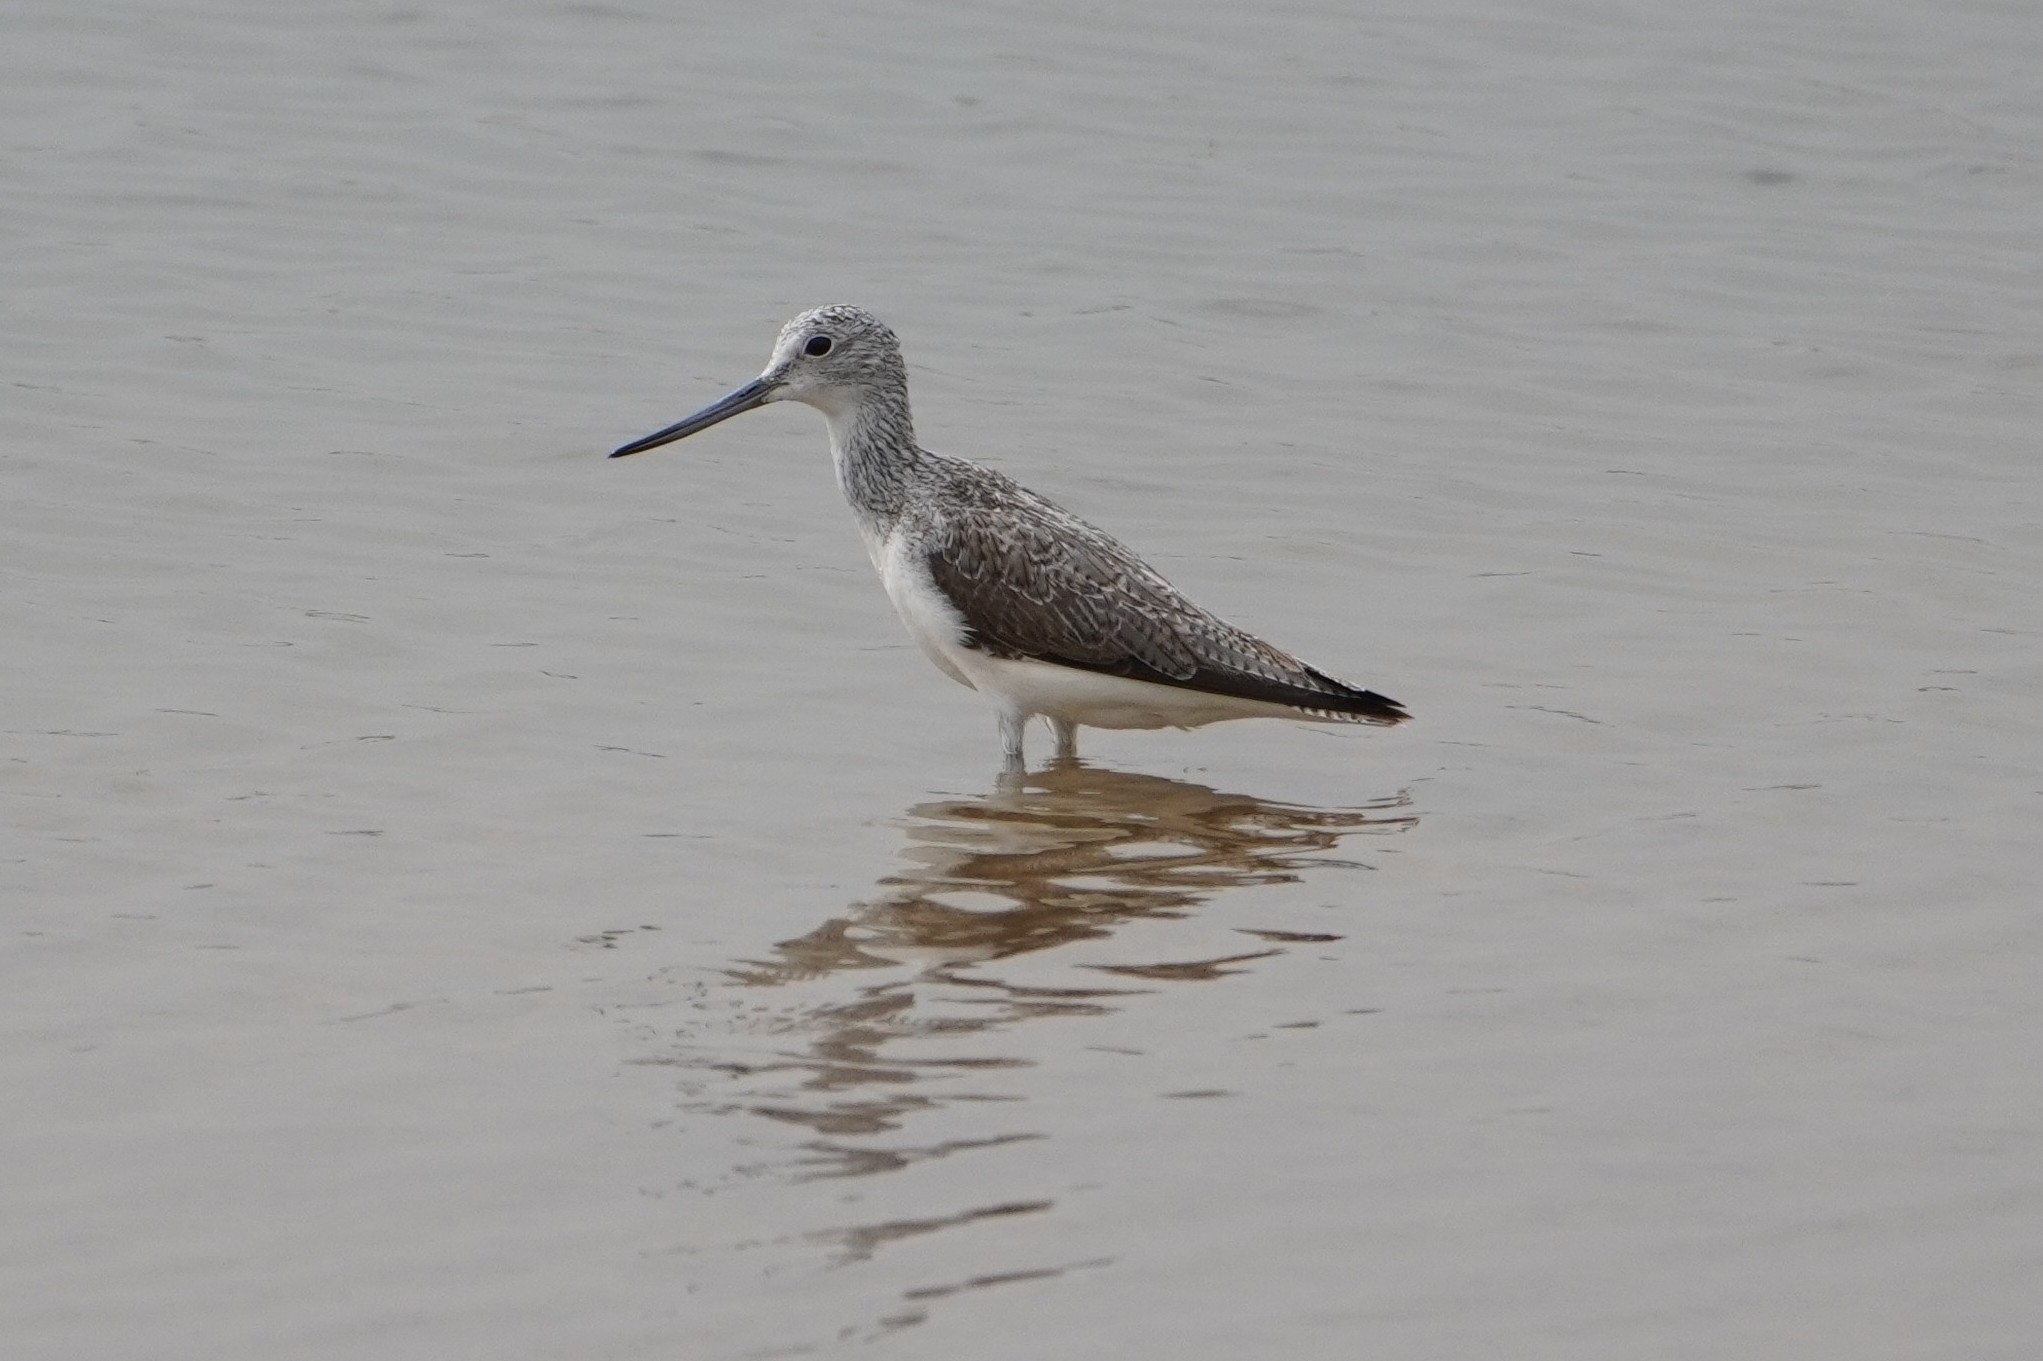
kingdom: Animalia
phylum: Chordata
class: Aves
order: Charadriiformes
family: Scolopacidae
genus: Tringa
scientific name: Tringa nebularia
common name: Common greenshank
